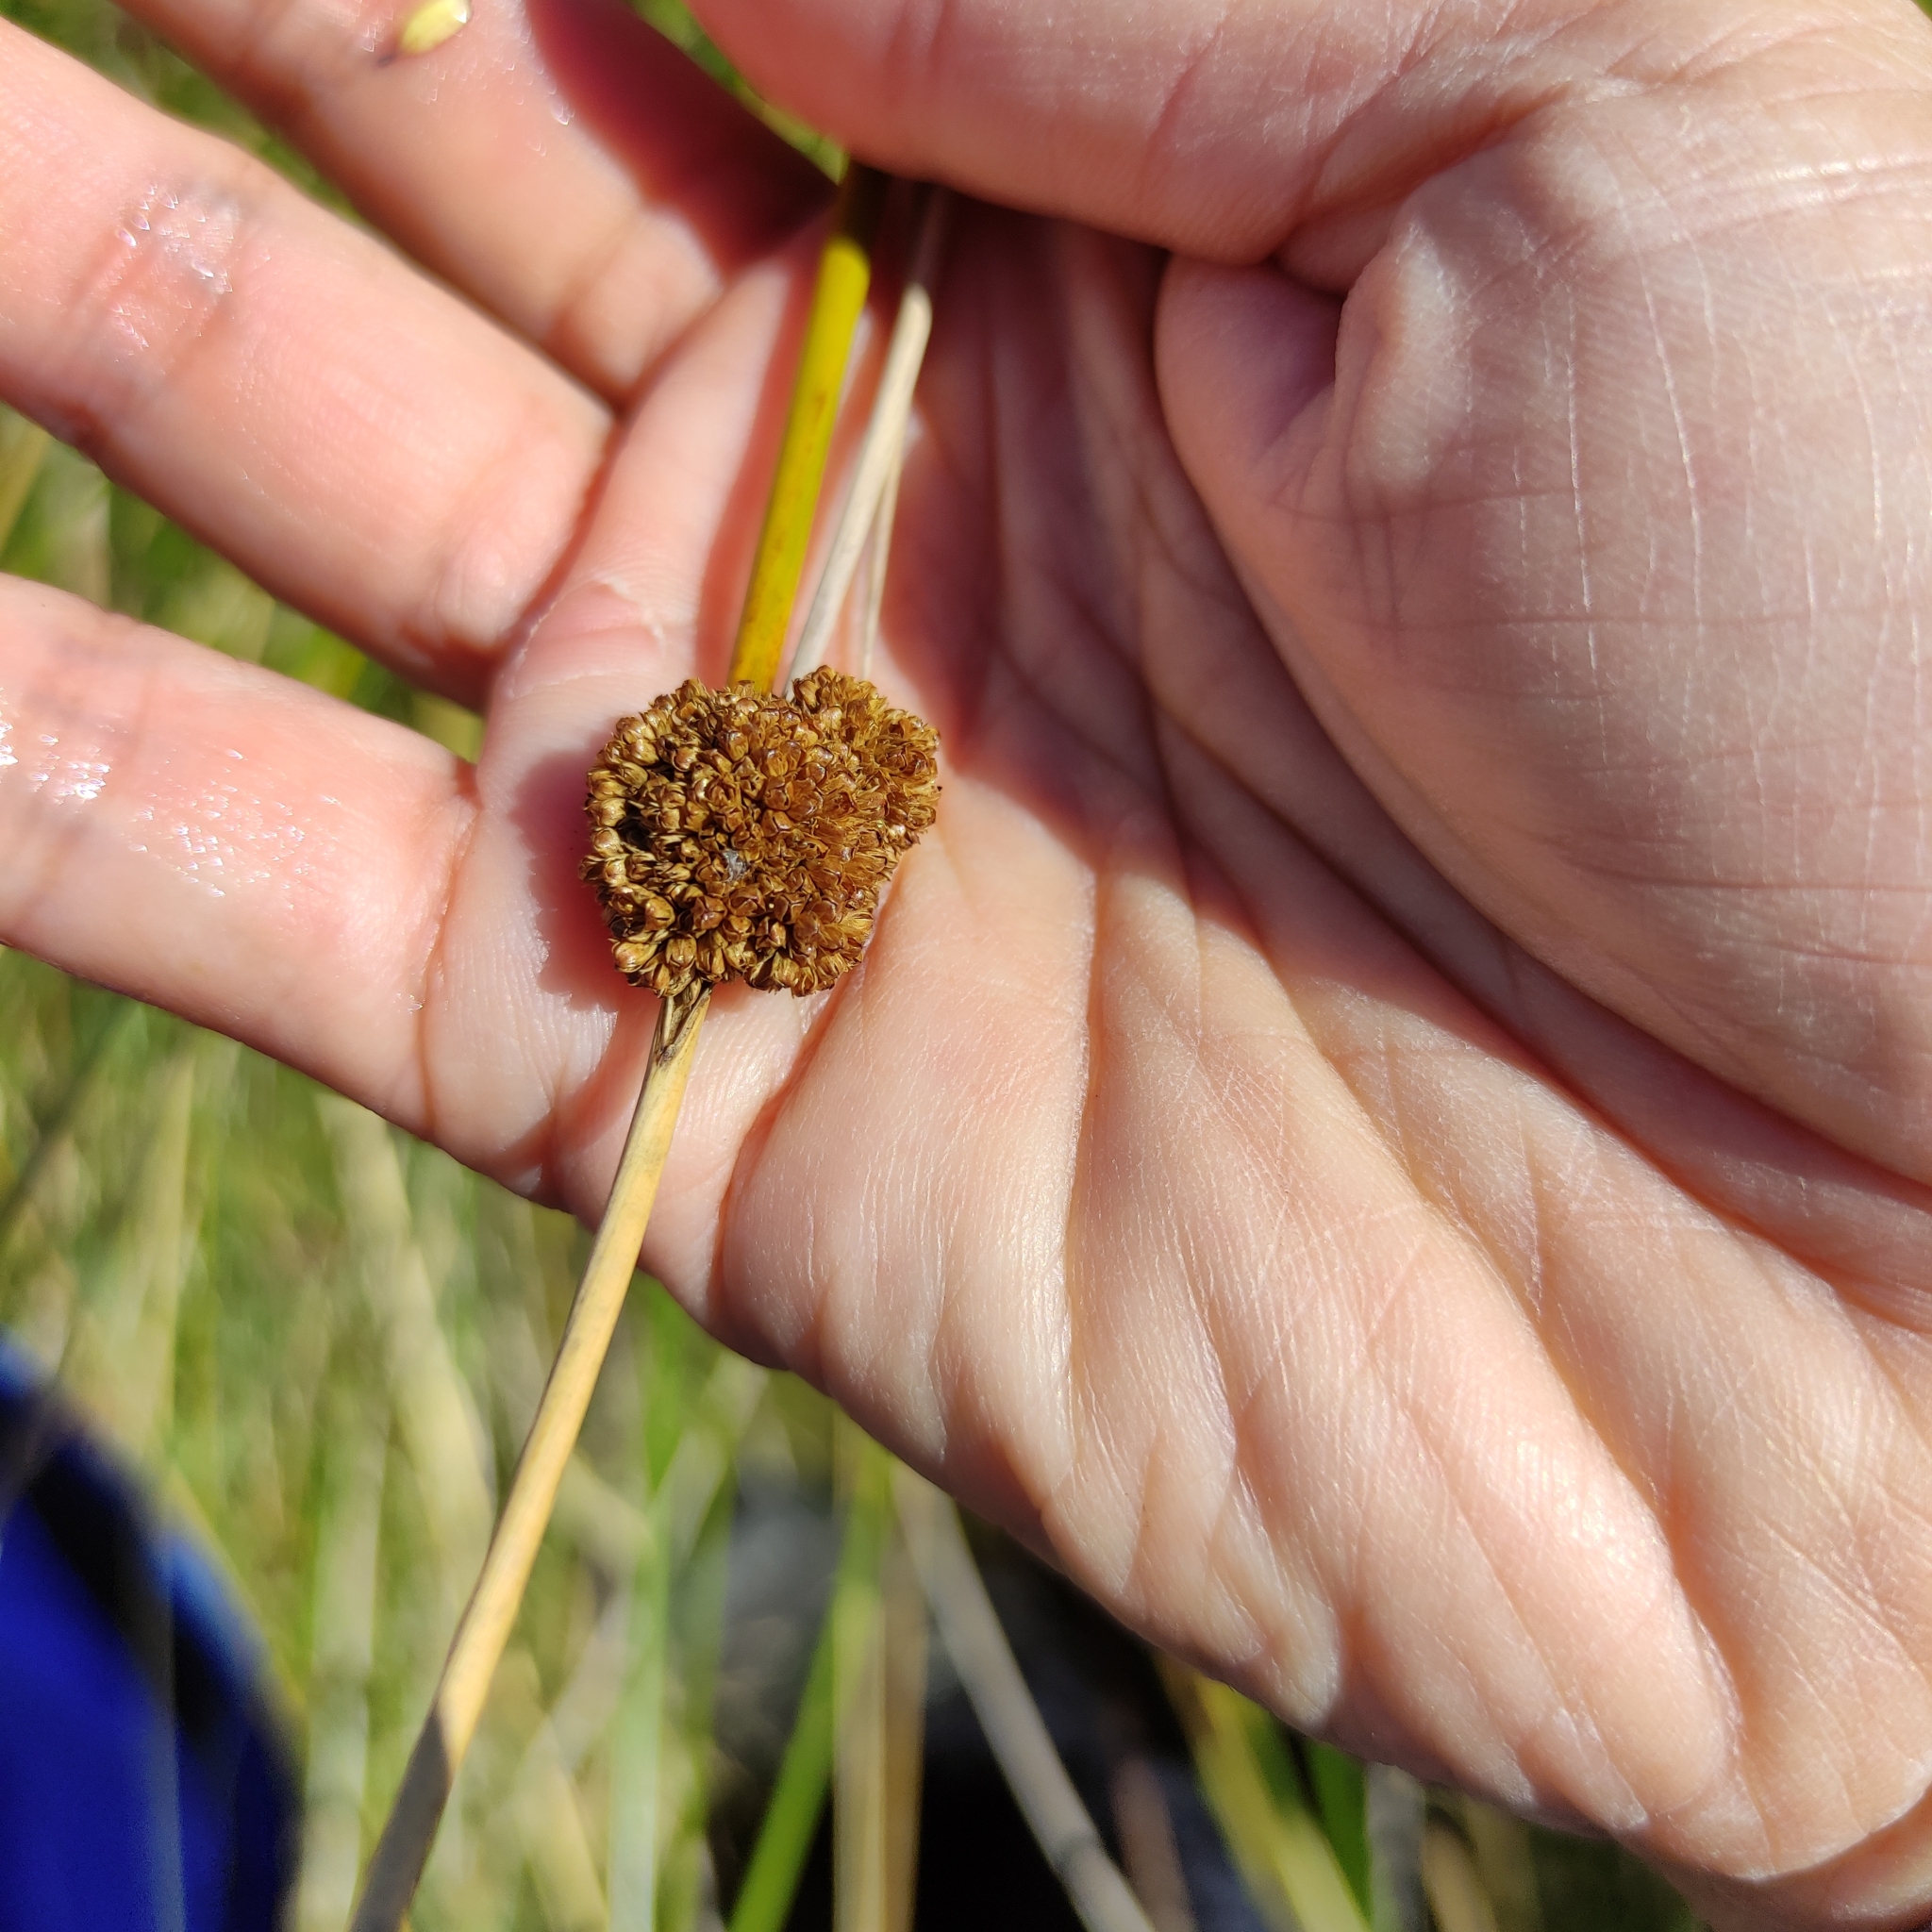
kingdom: Plantae
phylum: Tracheophyta
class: Liliopsida
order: Poales
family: Cyperaceae
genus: Ficinia
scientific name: Ficinia nodosa
